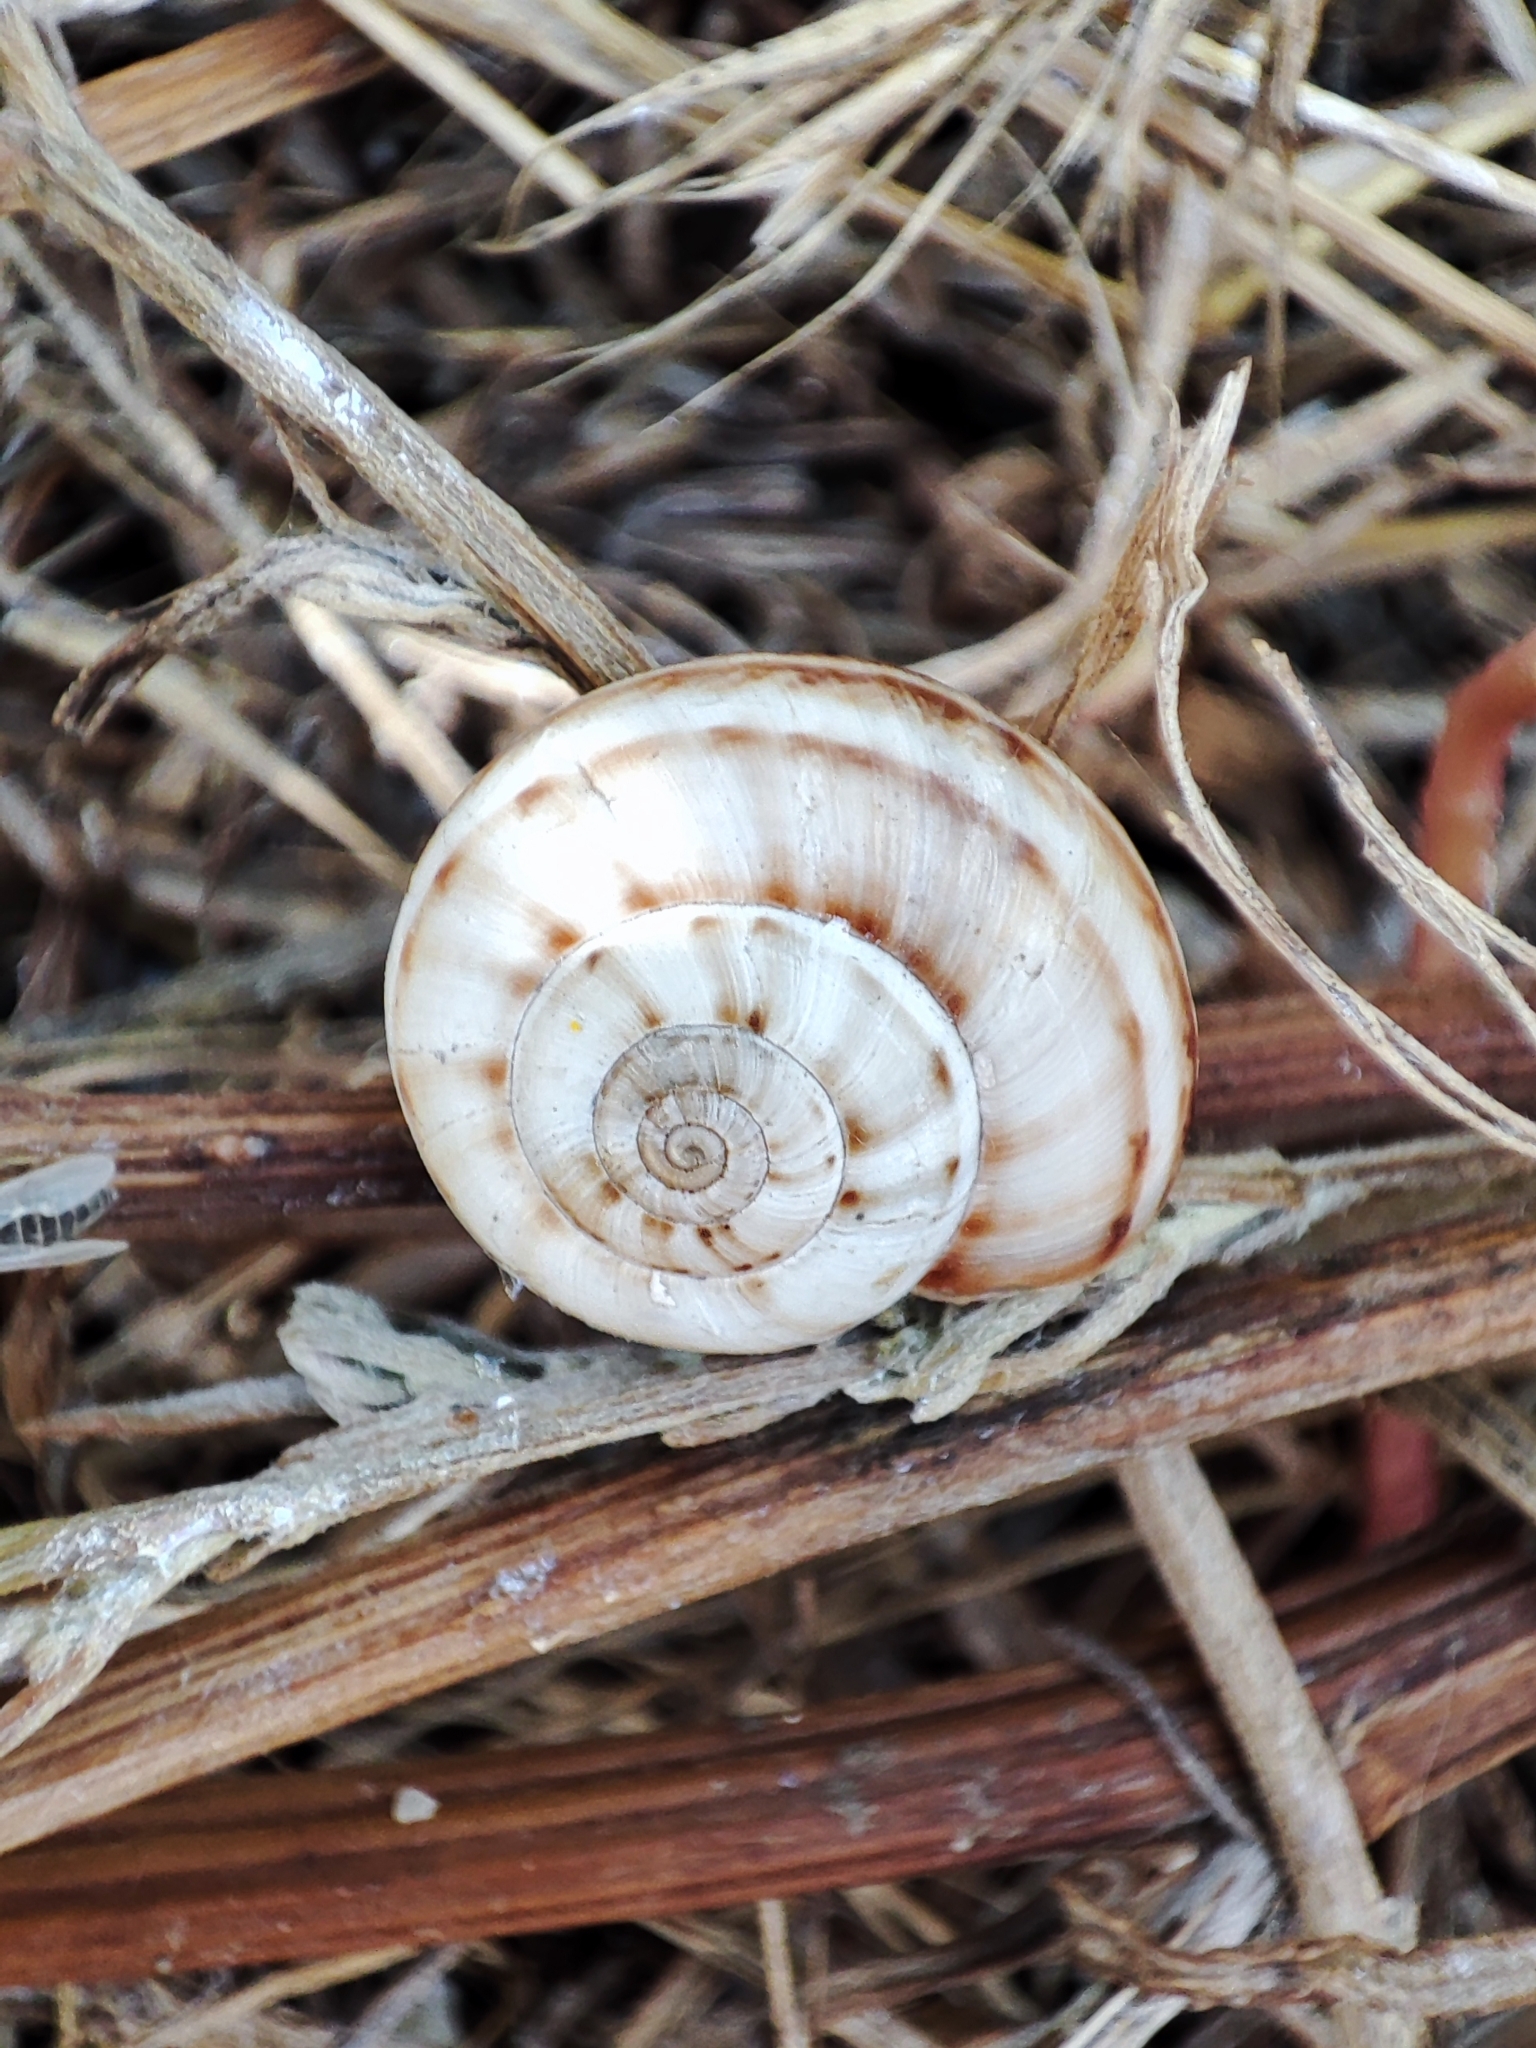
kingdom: Animalia
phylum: Mollusca
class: Gastropoda
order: Stylommatophora
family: Geomitridae
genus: Xeropicta
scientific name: Xeropicta derbentina
